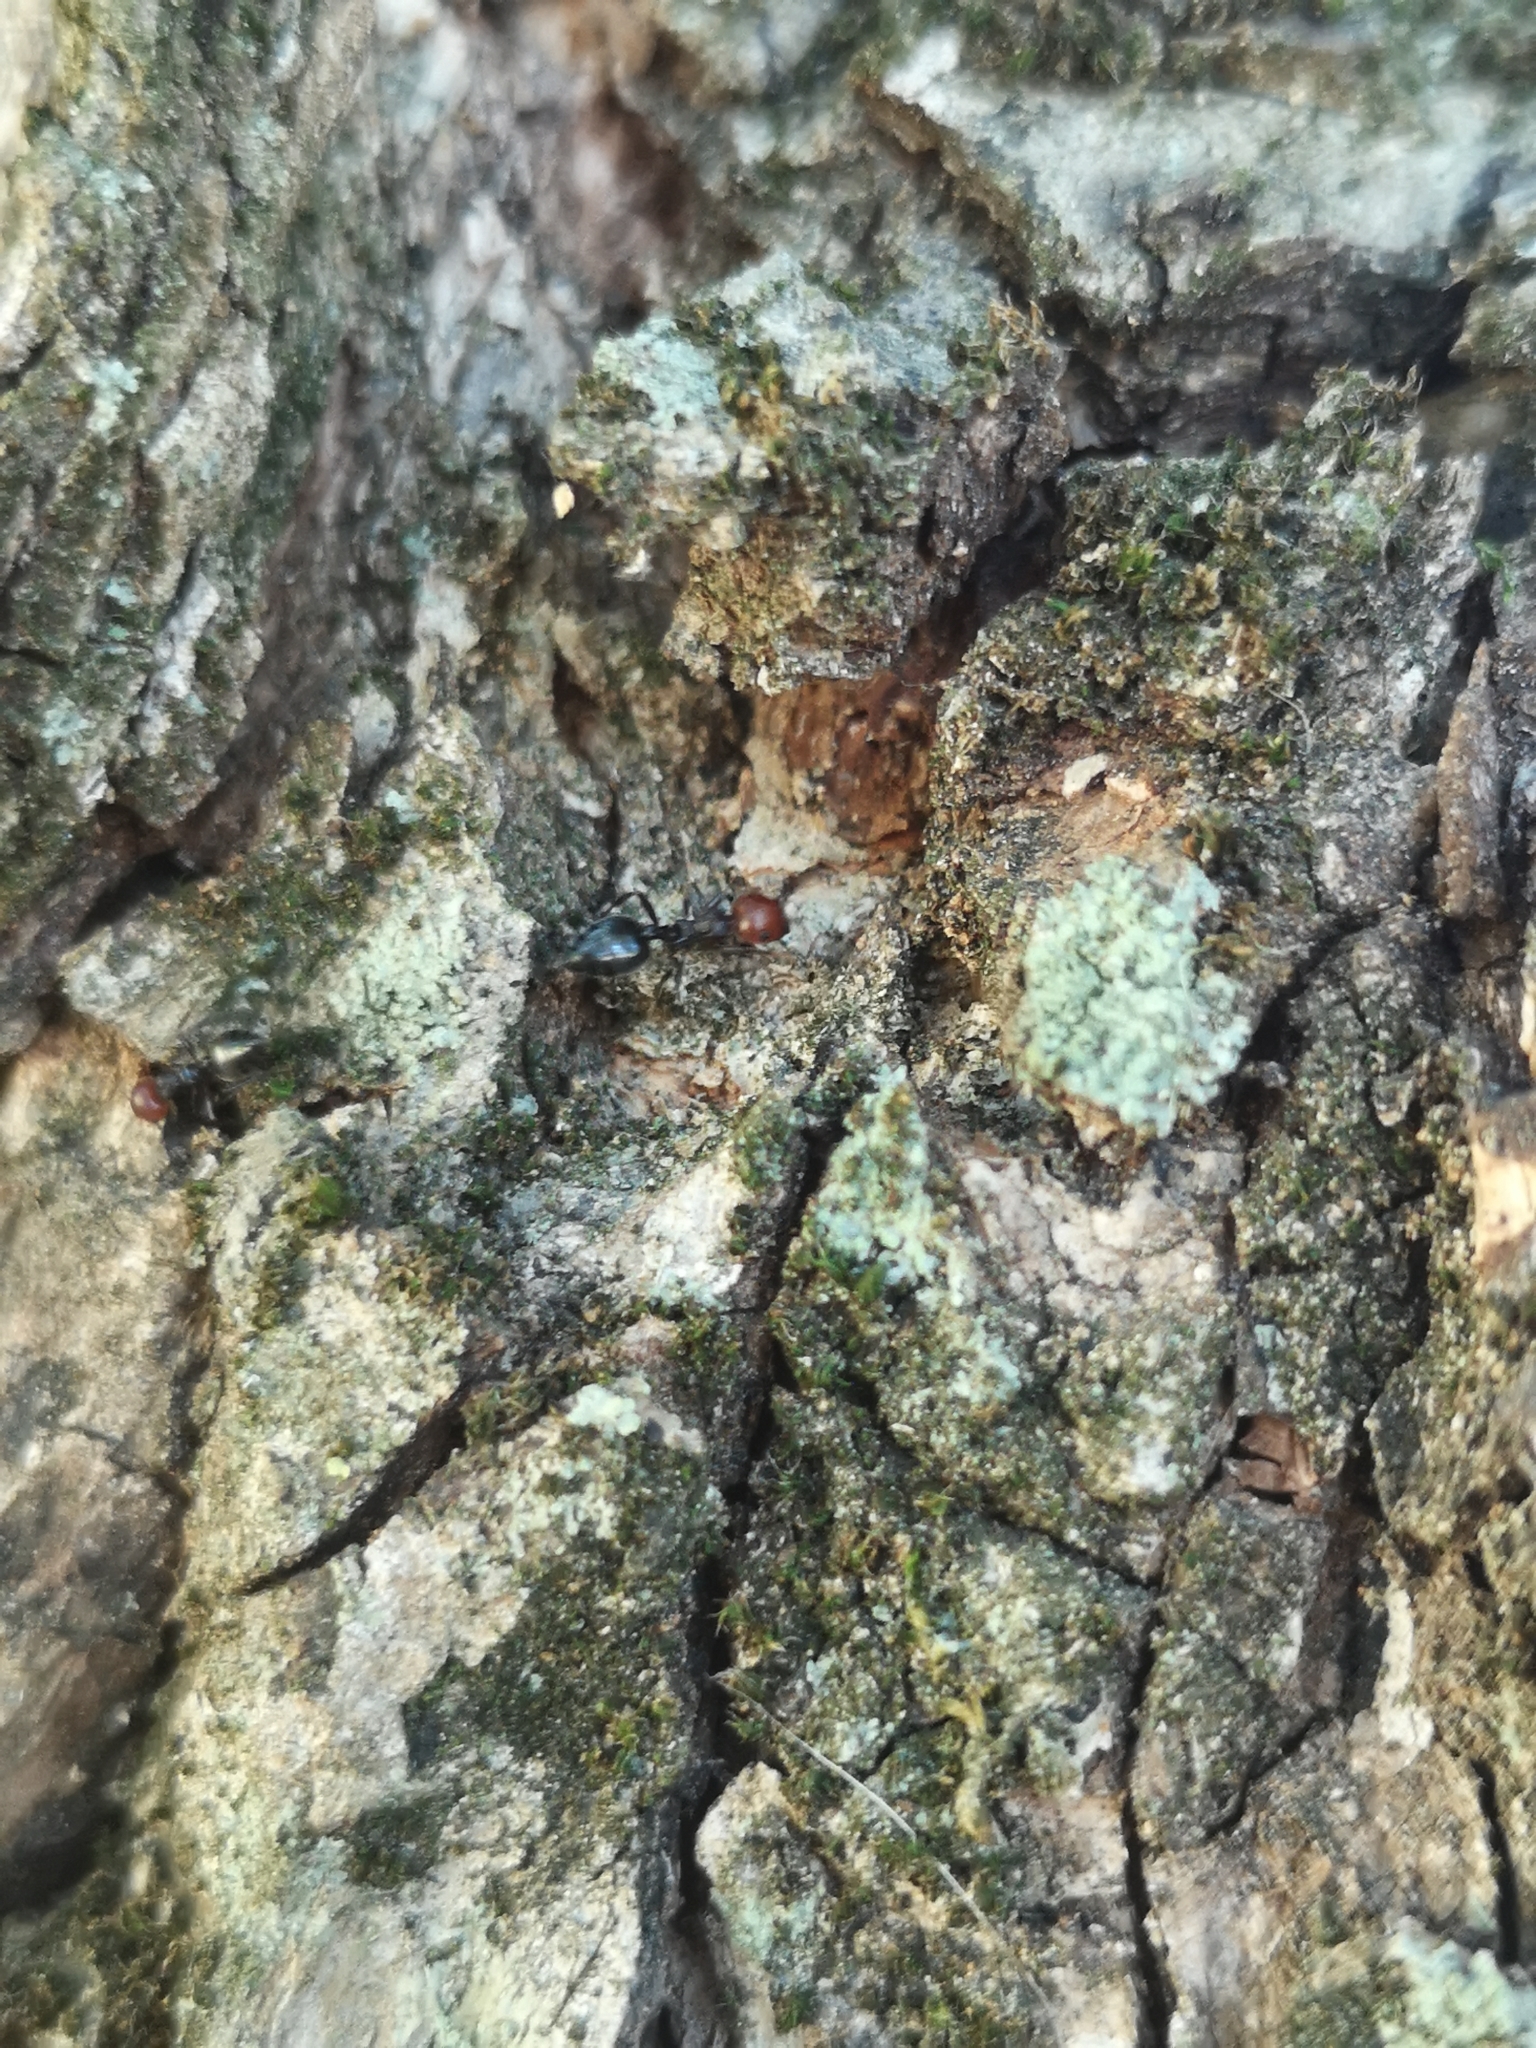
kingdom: Animalia
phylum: Arthropoda
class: Insecta
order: Hymenoptera
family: Formicidae
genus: Crematogaster
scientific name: Crematogaster scutellaris
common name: Fourmi du liège
